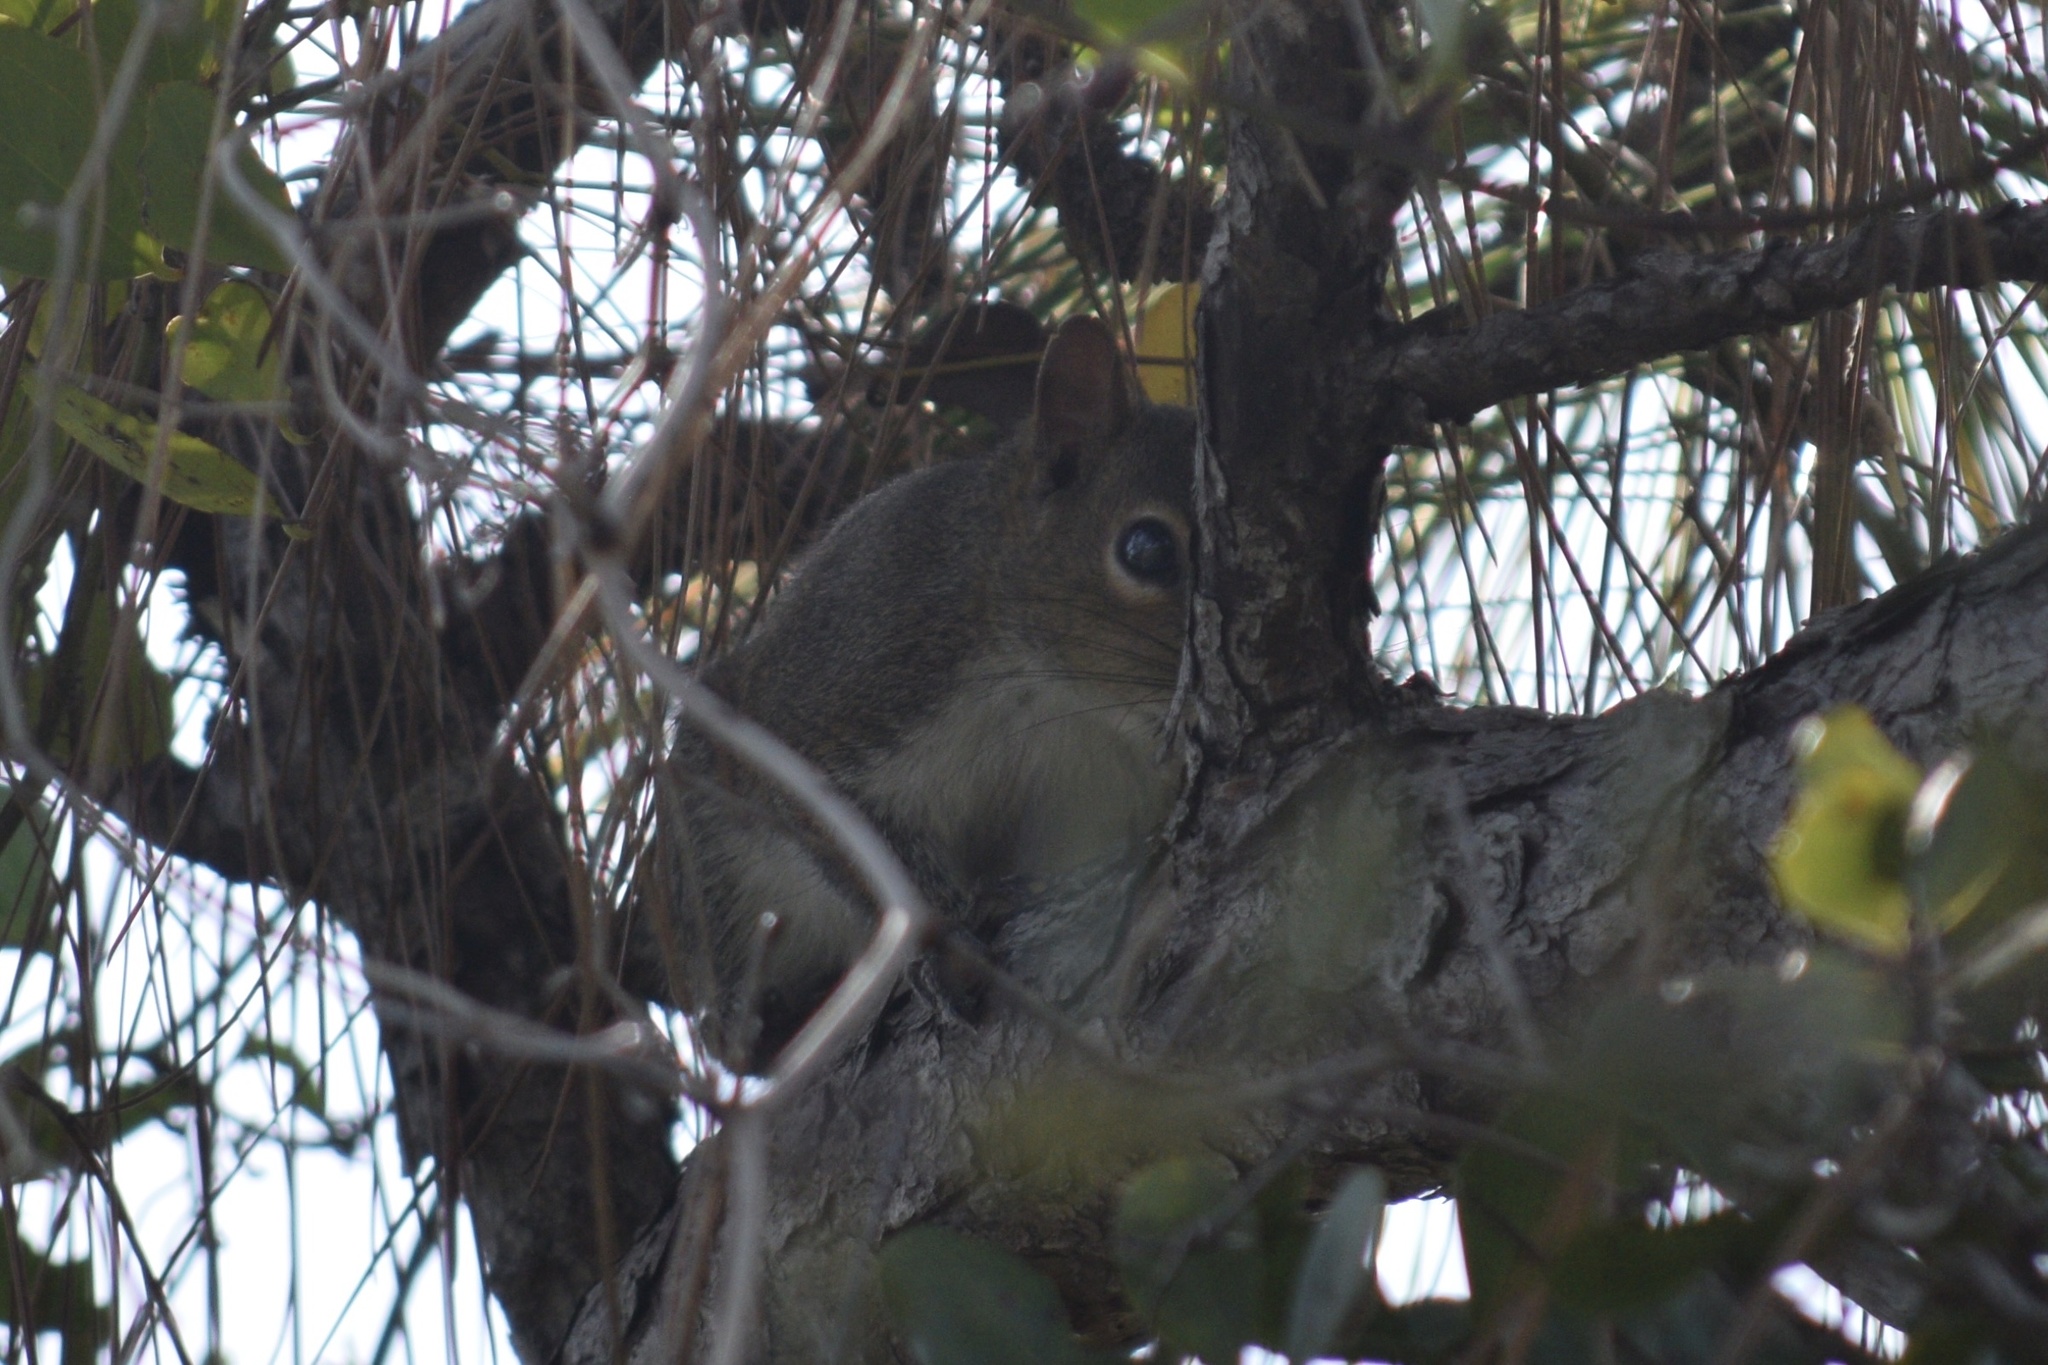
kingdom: Animalia
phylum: Chordata
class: Mammalia
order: Rodentia
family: Sciuridae
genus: Sciurus
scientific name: Sciurus carolinensis
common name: Eastern gray squirrel
